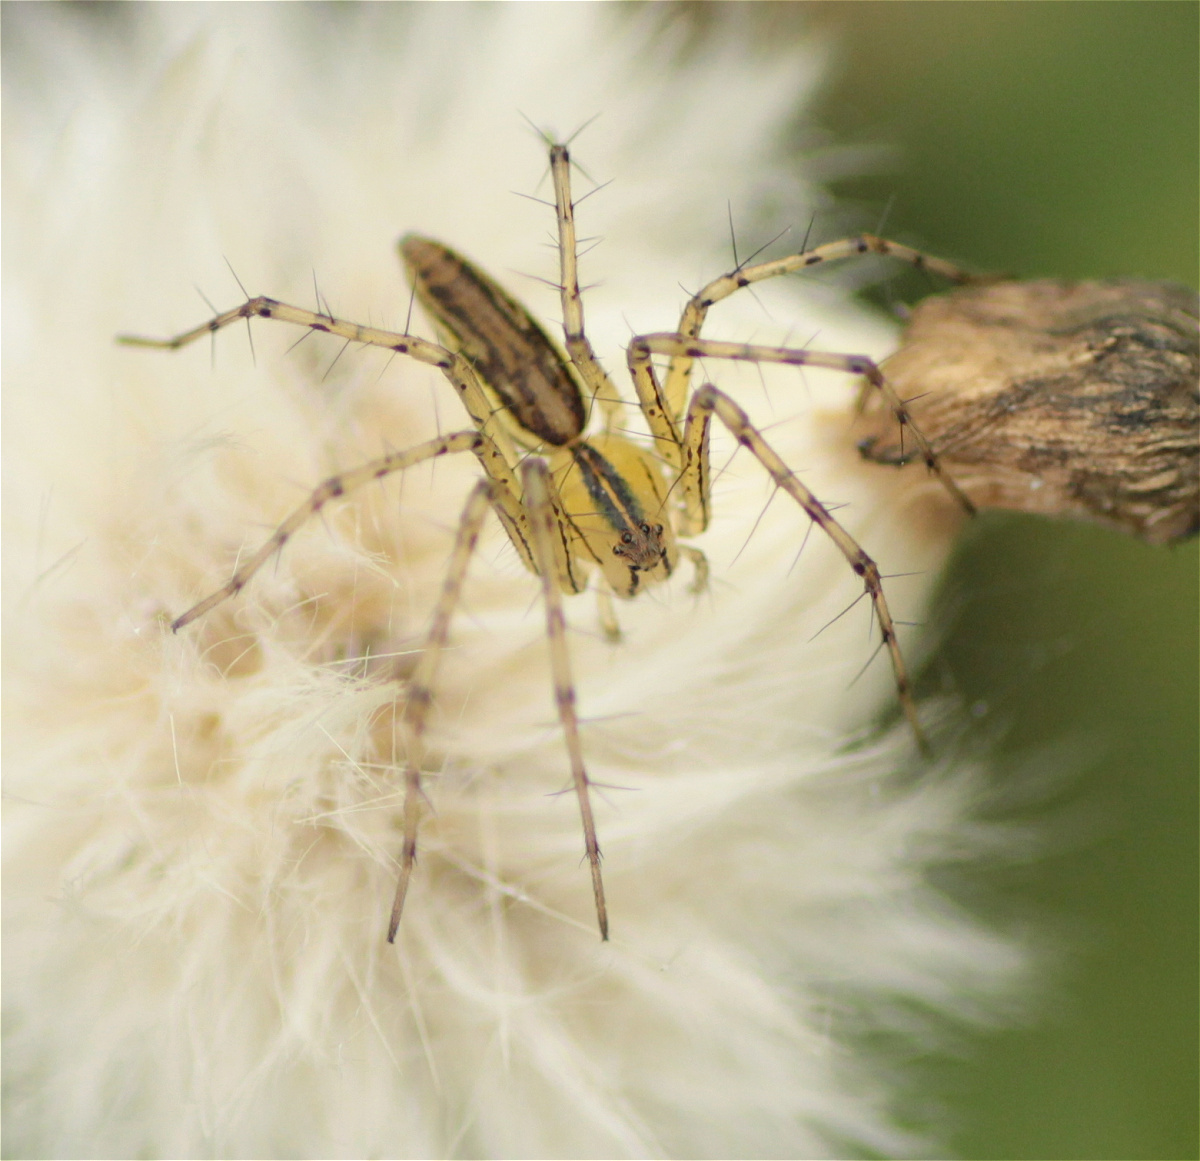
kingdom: Animalia
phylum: Arthropoda
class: Arachnida
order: Araneae
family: Oxyopidae
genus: Peucetia
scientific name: Peucetia rubrolineata
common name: Lynx spiders
